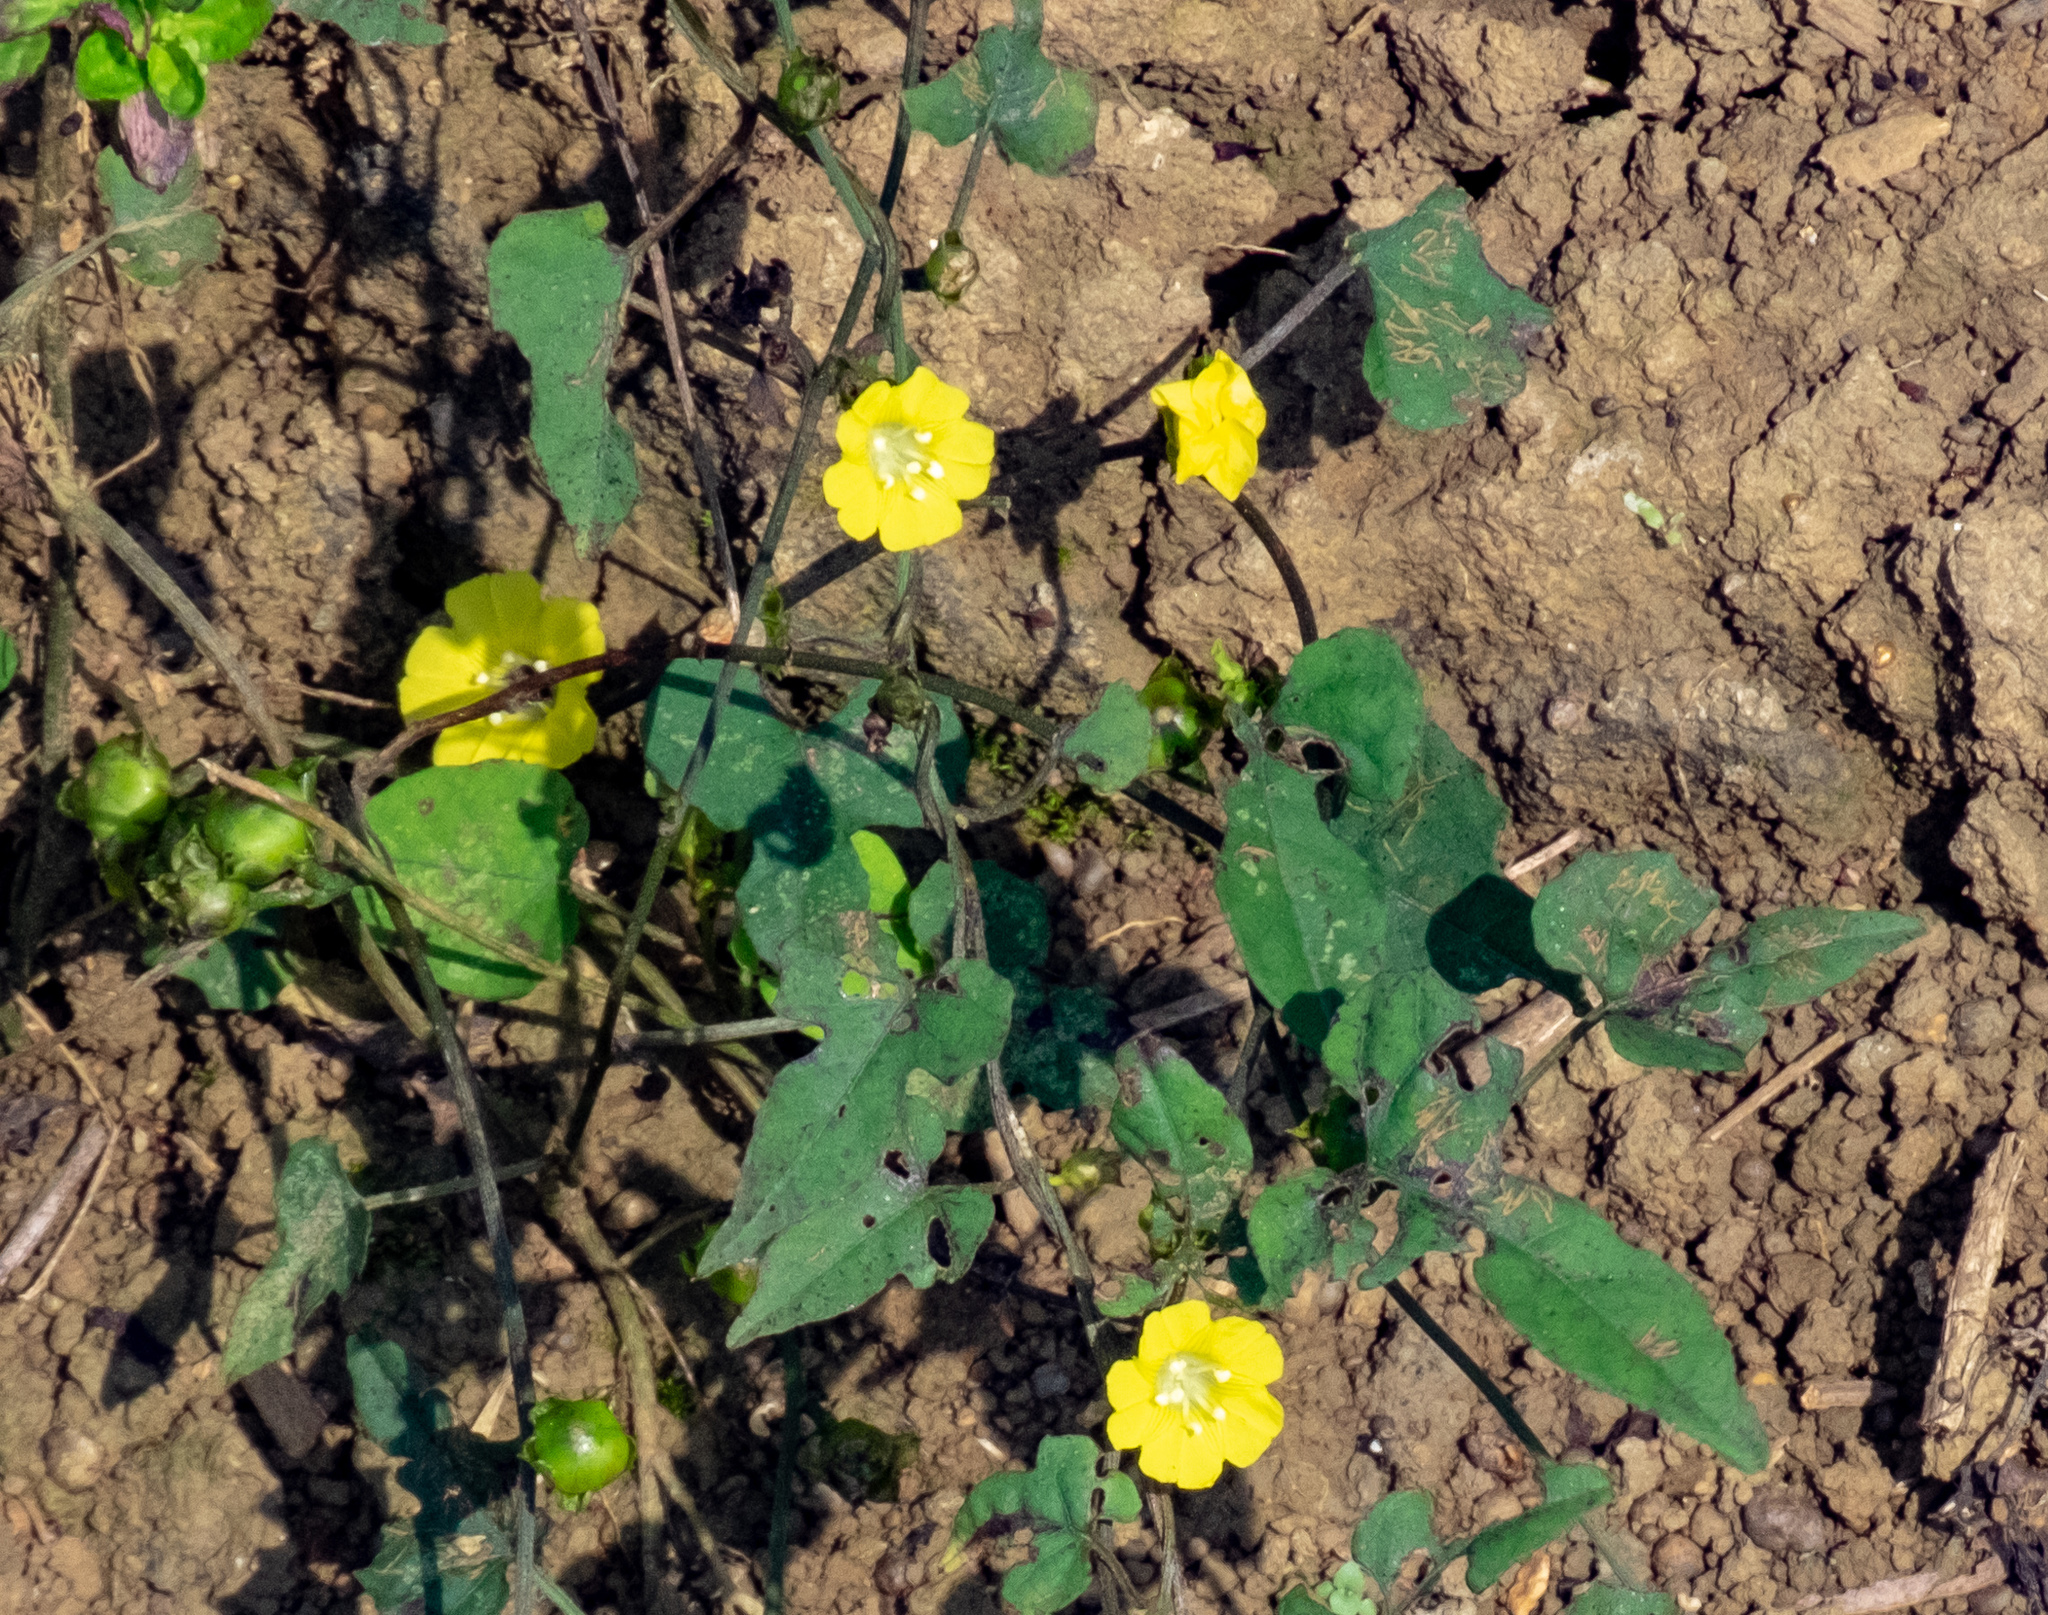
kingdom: Plantae
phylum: Tracheophyta
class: Magnoliopsida
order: Solanales
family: Convolvulaceae
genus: Merremia
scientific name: Merremia hederacea
